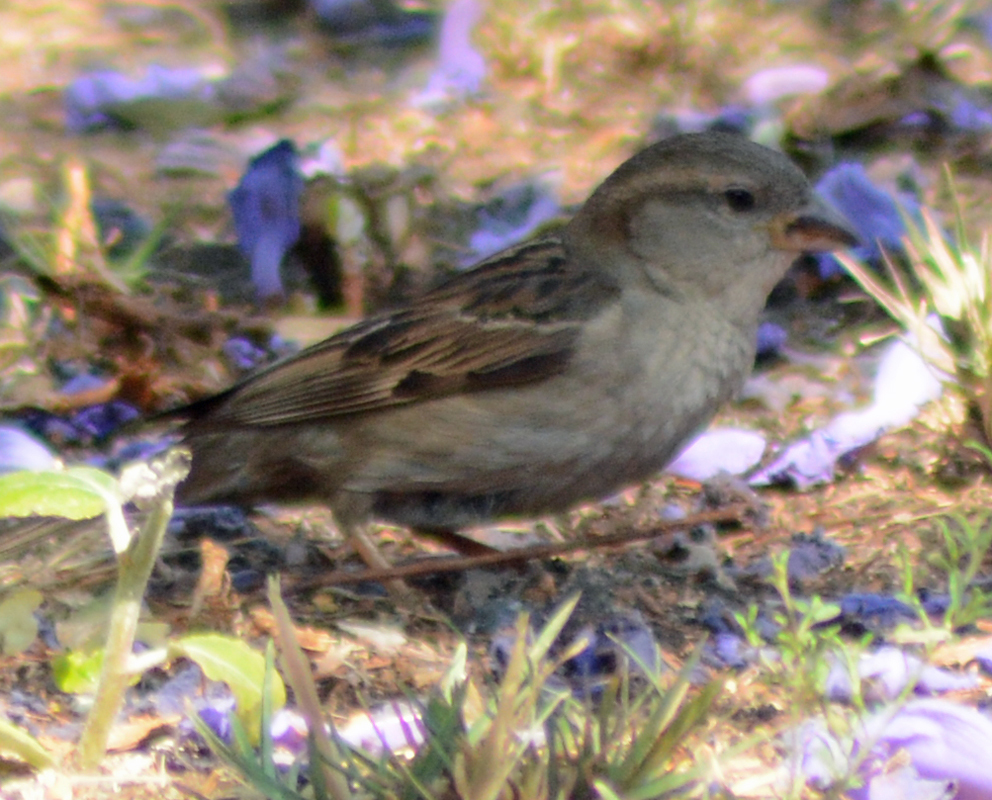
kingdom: Animalia
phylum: Chordata
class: Aves
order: Passeriformes
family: Passeridae
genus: Passer
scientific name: Passer domesticus
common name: House sparrow
